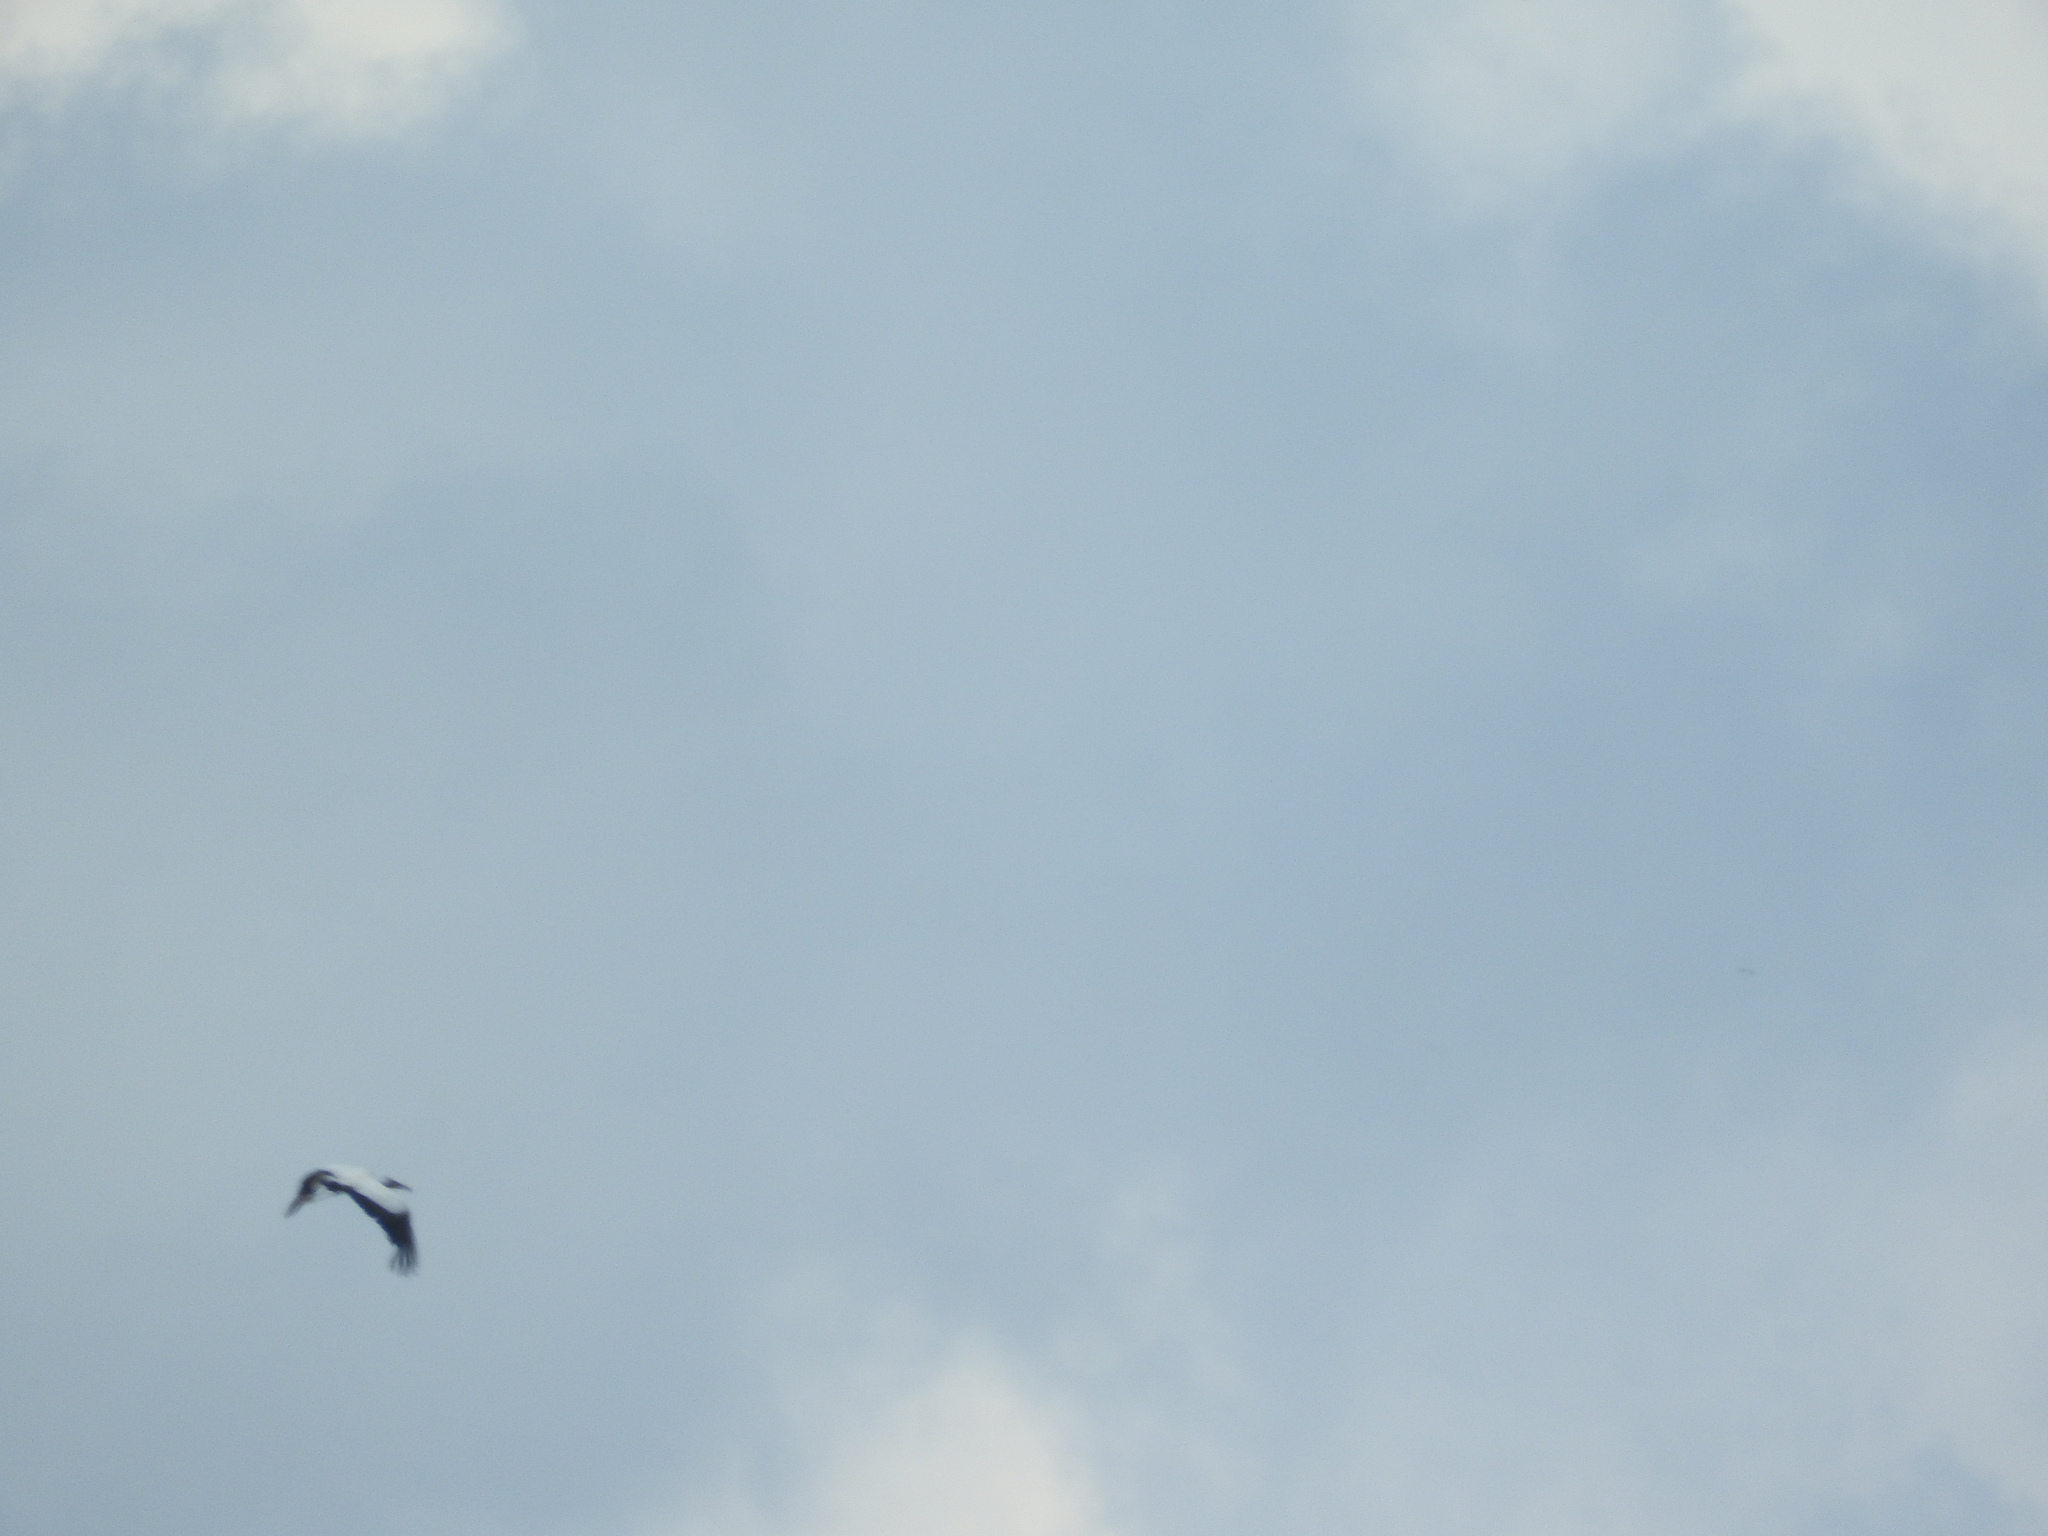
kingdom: Animalia
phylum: Chordata
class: Aves
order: Ciconiiformes
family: Ciconiidae
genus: Mycteria
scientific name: Mycteria americana
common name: Wood stork
